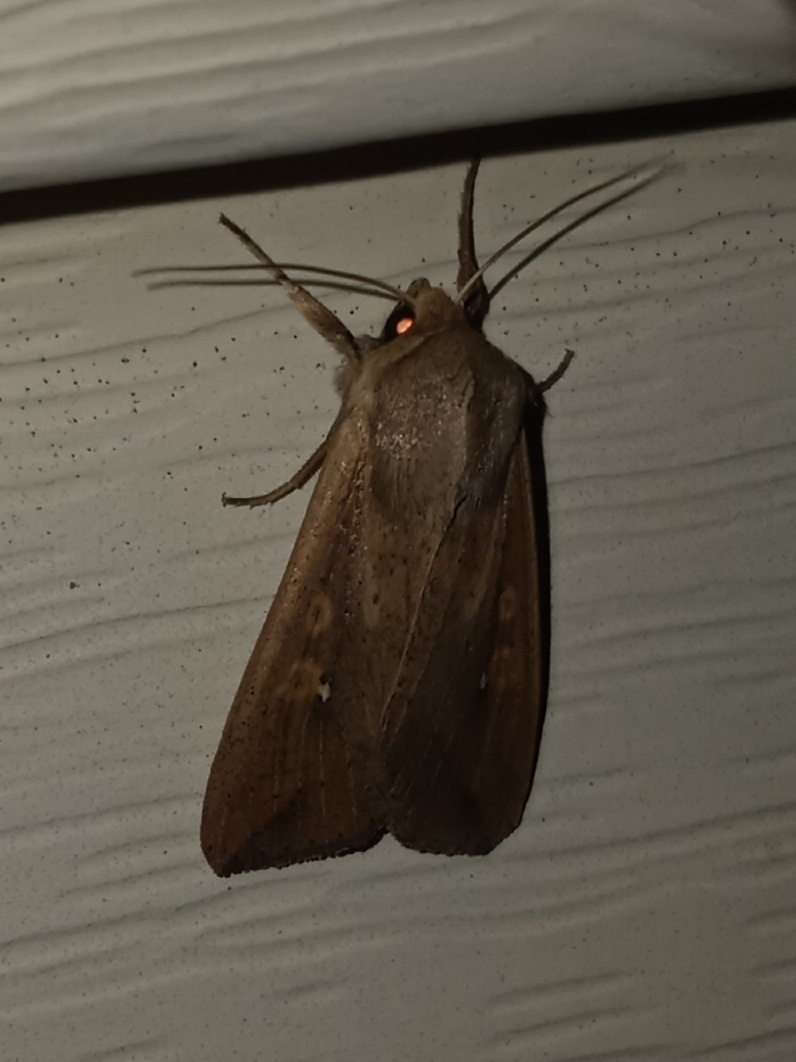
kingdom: Animalia
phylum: Arthropoda
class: Insecta
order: Lepidoptera
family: Noctuidae
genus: Mythimna
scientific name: Mythimna unipuncta
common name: White-speck
